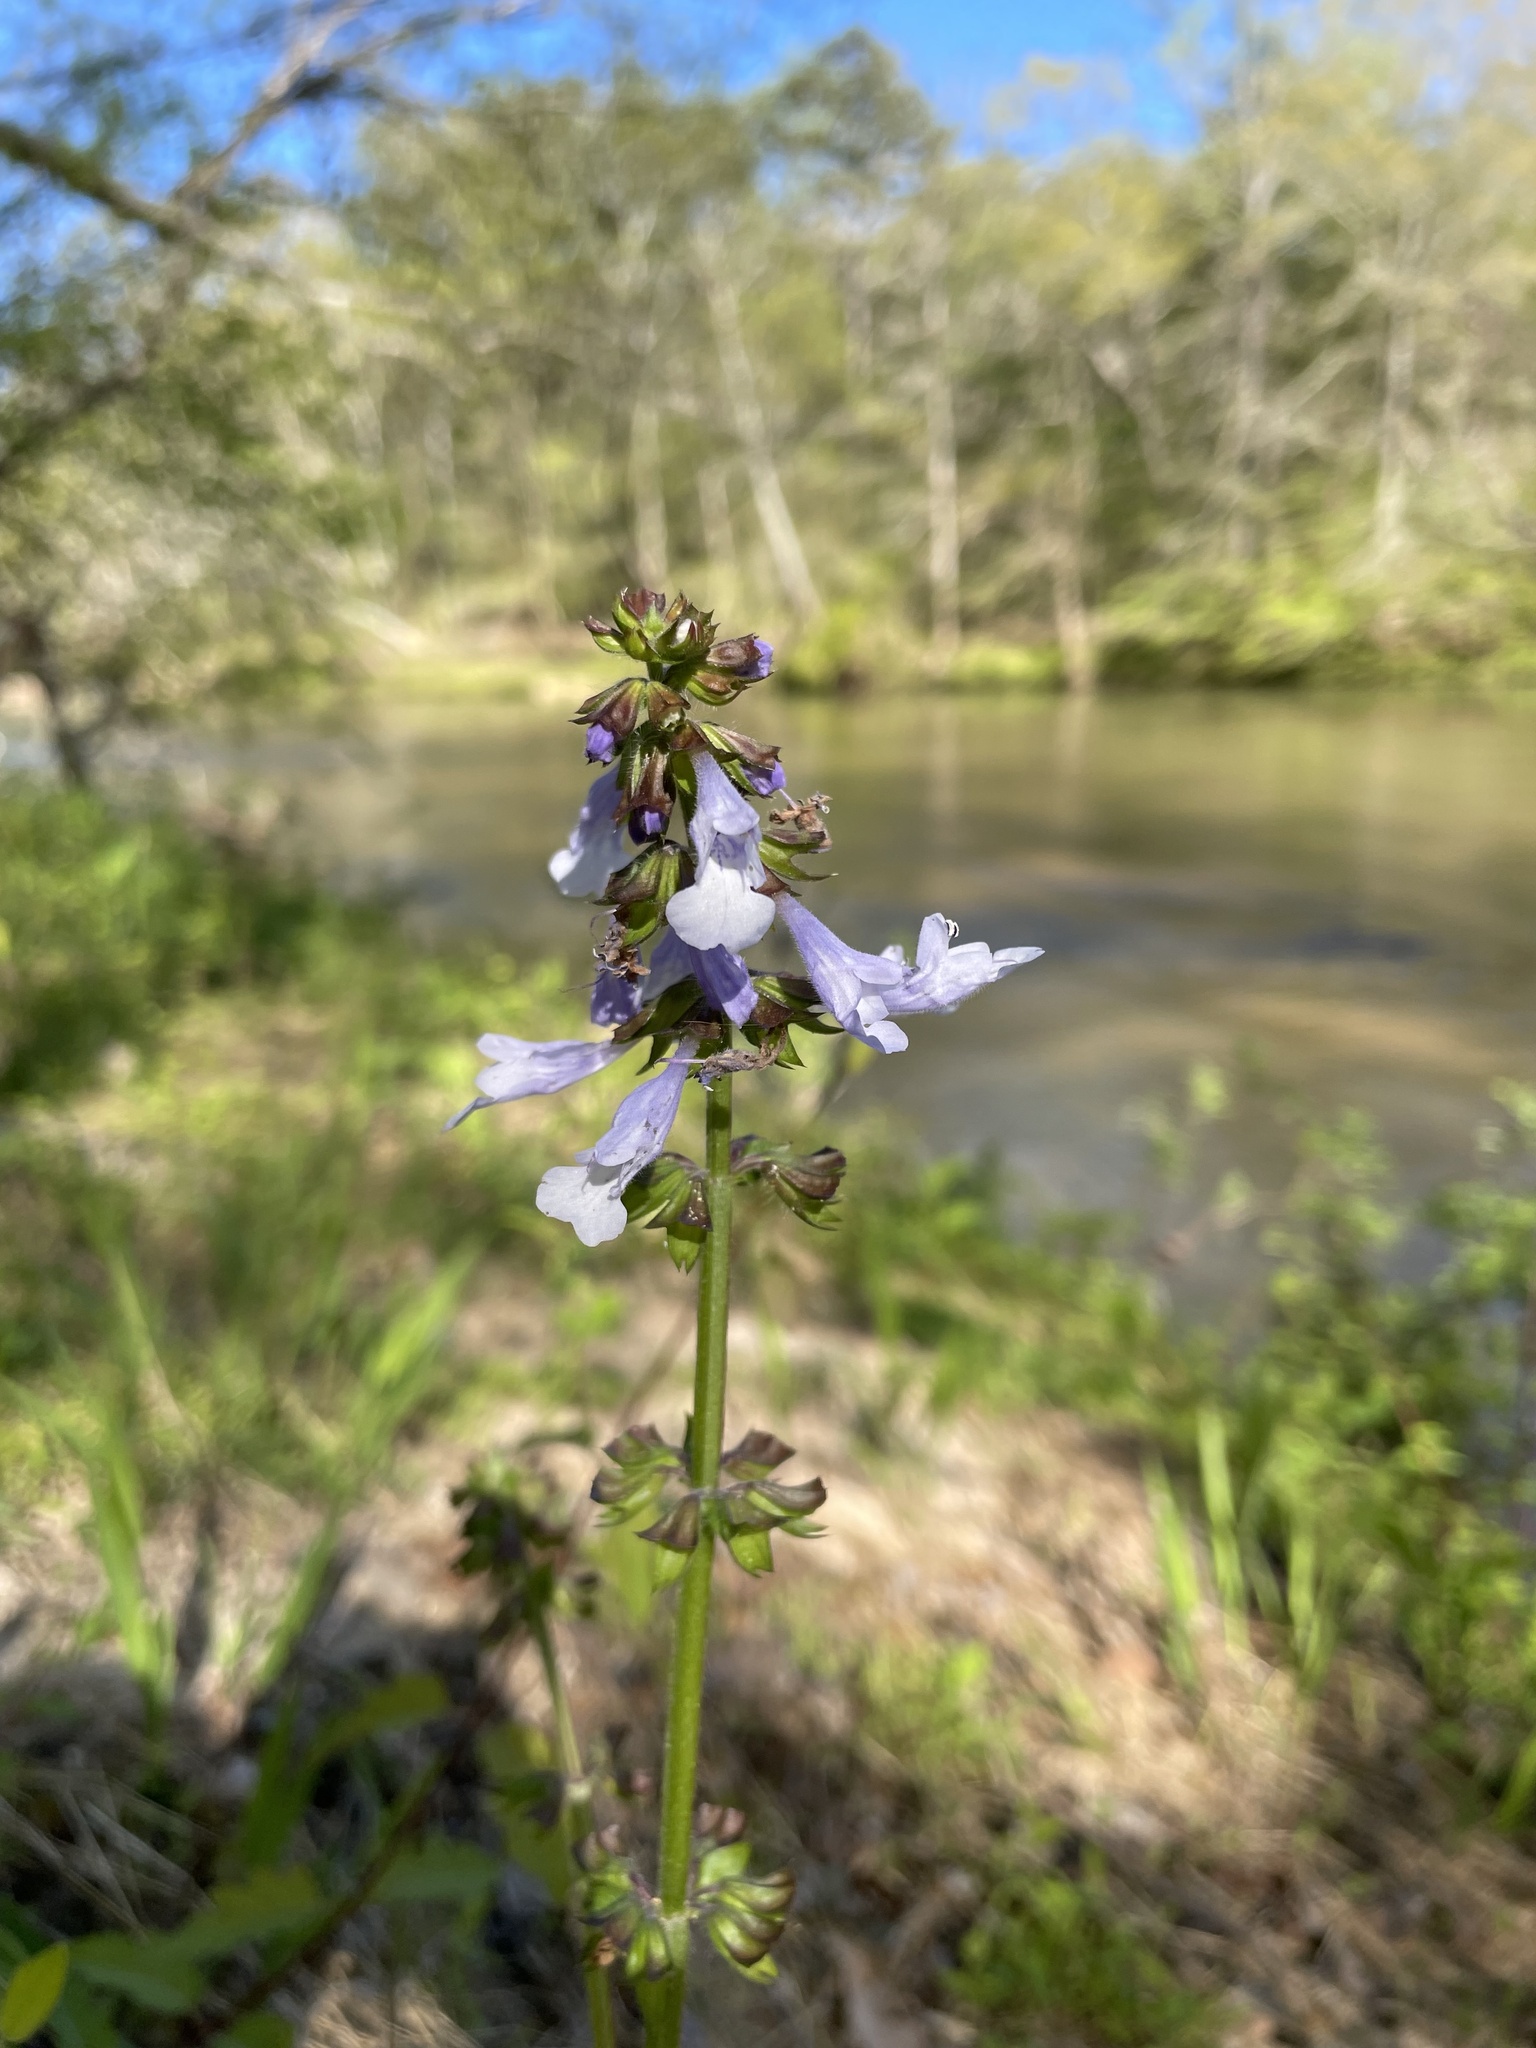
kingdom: Plantae
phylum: Tracheophyta
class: Magnoliopsida
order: Lamiales
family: Lamiaceae
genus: Salvia
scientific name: Salvia lyrata
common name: Cancerweed
